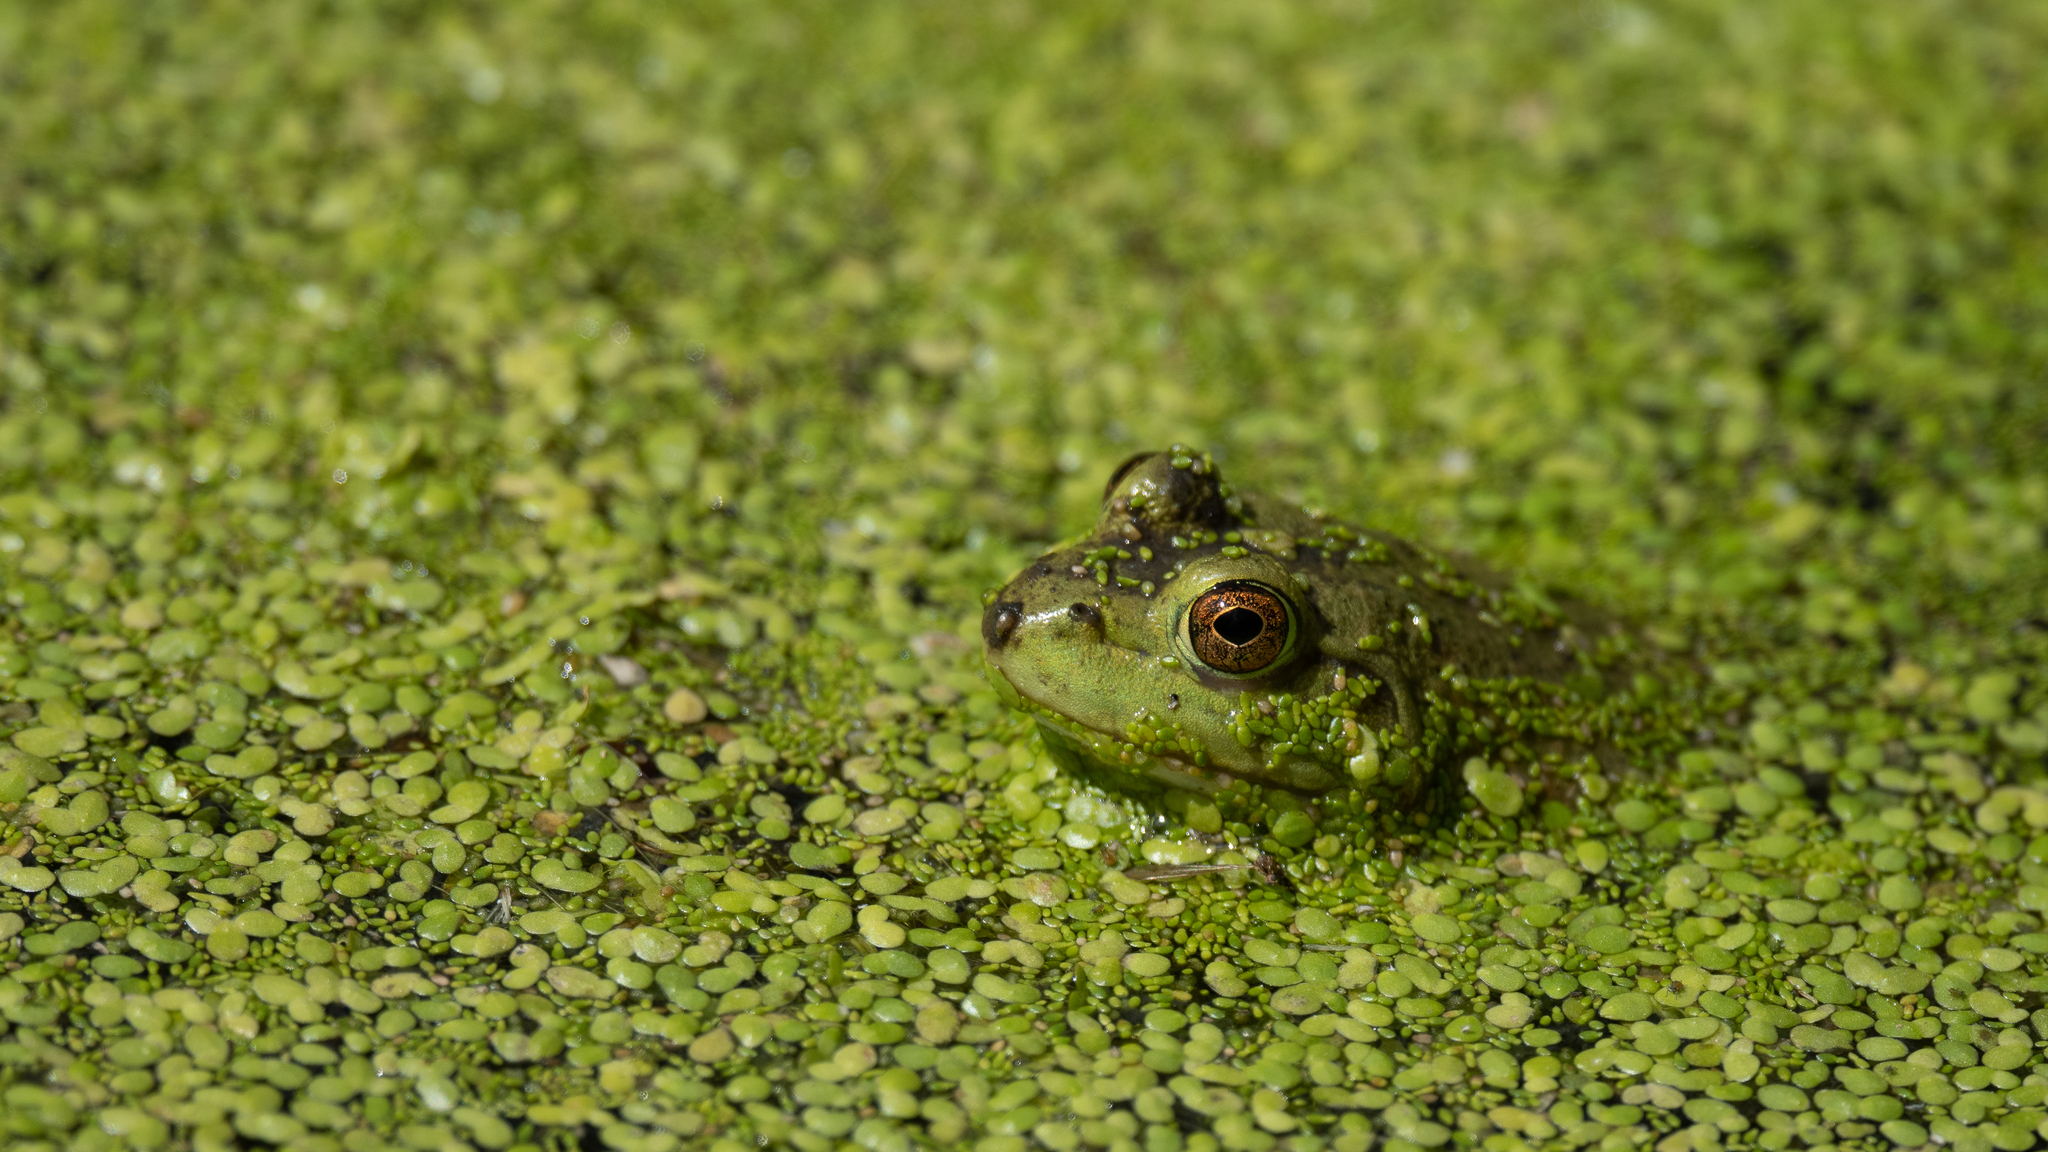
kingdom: Animalia
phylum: Chordata
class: Amphibia
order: Anura
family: Ranidae
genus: Lithobates
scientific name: Lithobates catesbeianus
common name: American bullfrog
